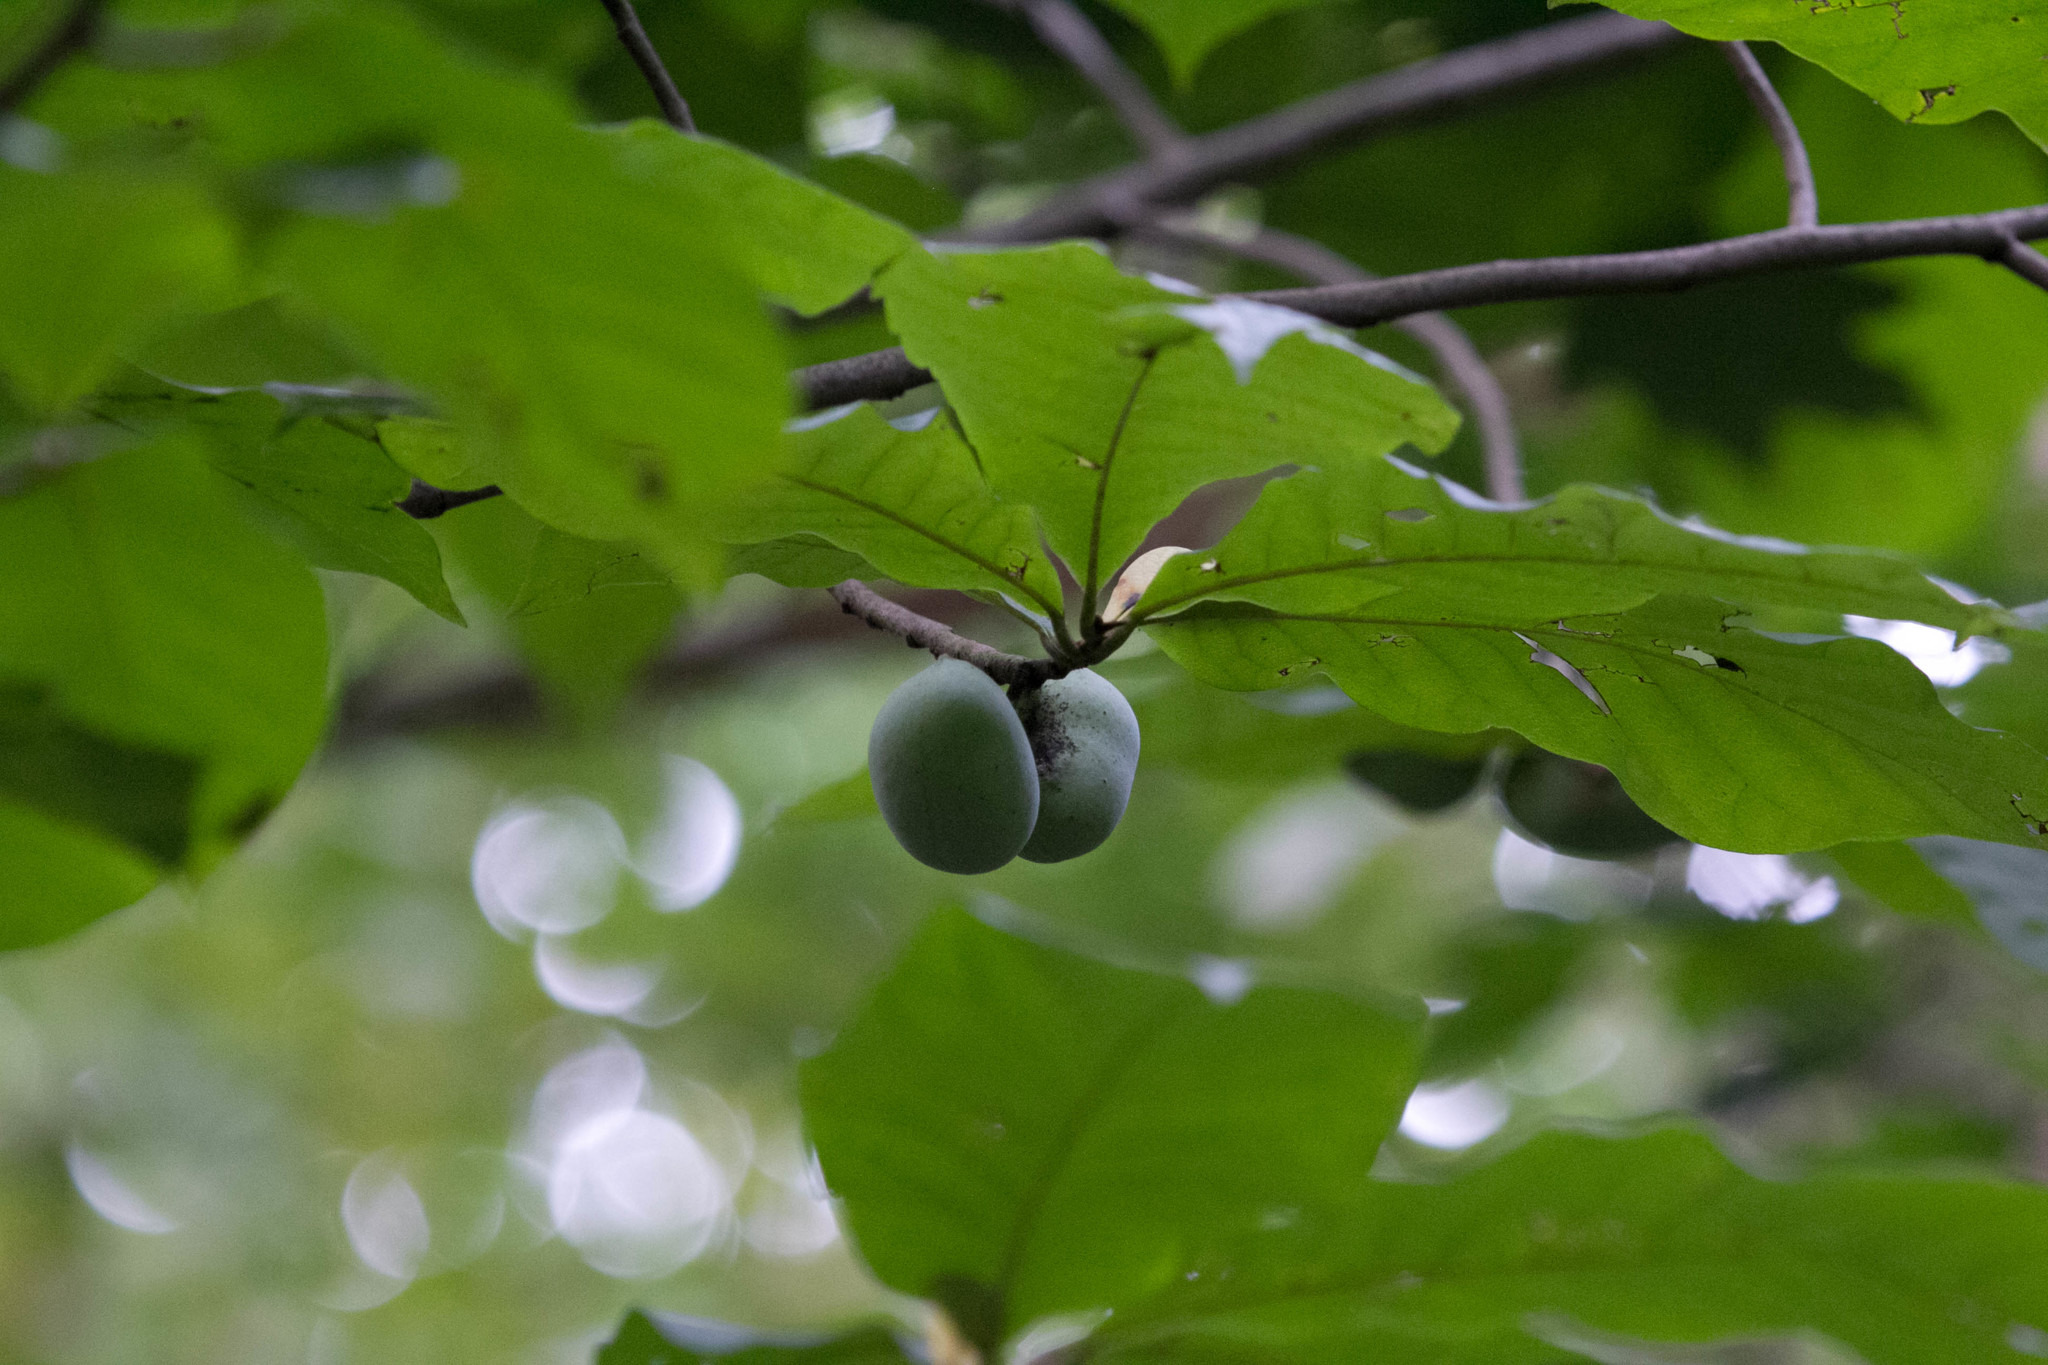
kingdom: Plantae
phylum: Tracheophyta
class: Magnoliopsida
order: Magnoliales
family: Annonaceae
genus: Asimina
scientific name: Asimina triloba
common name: Dog-banana
